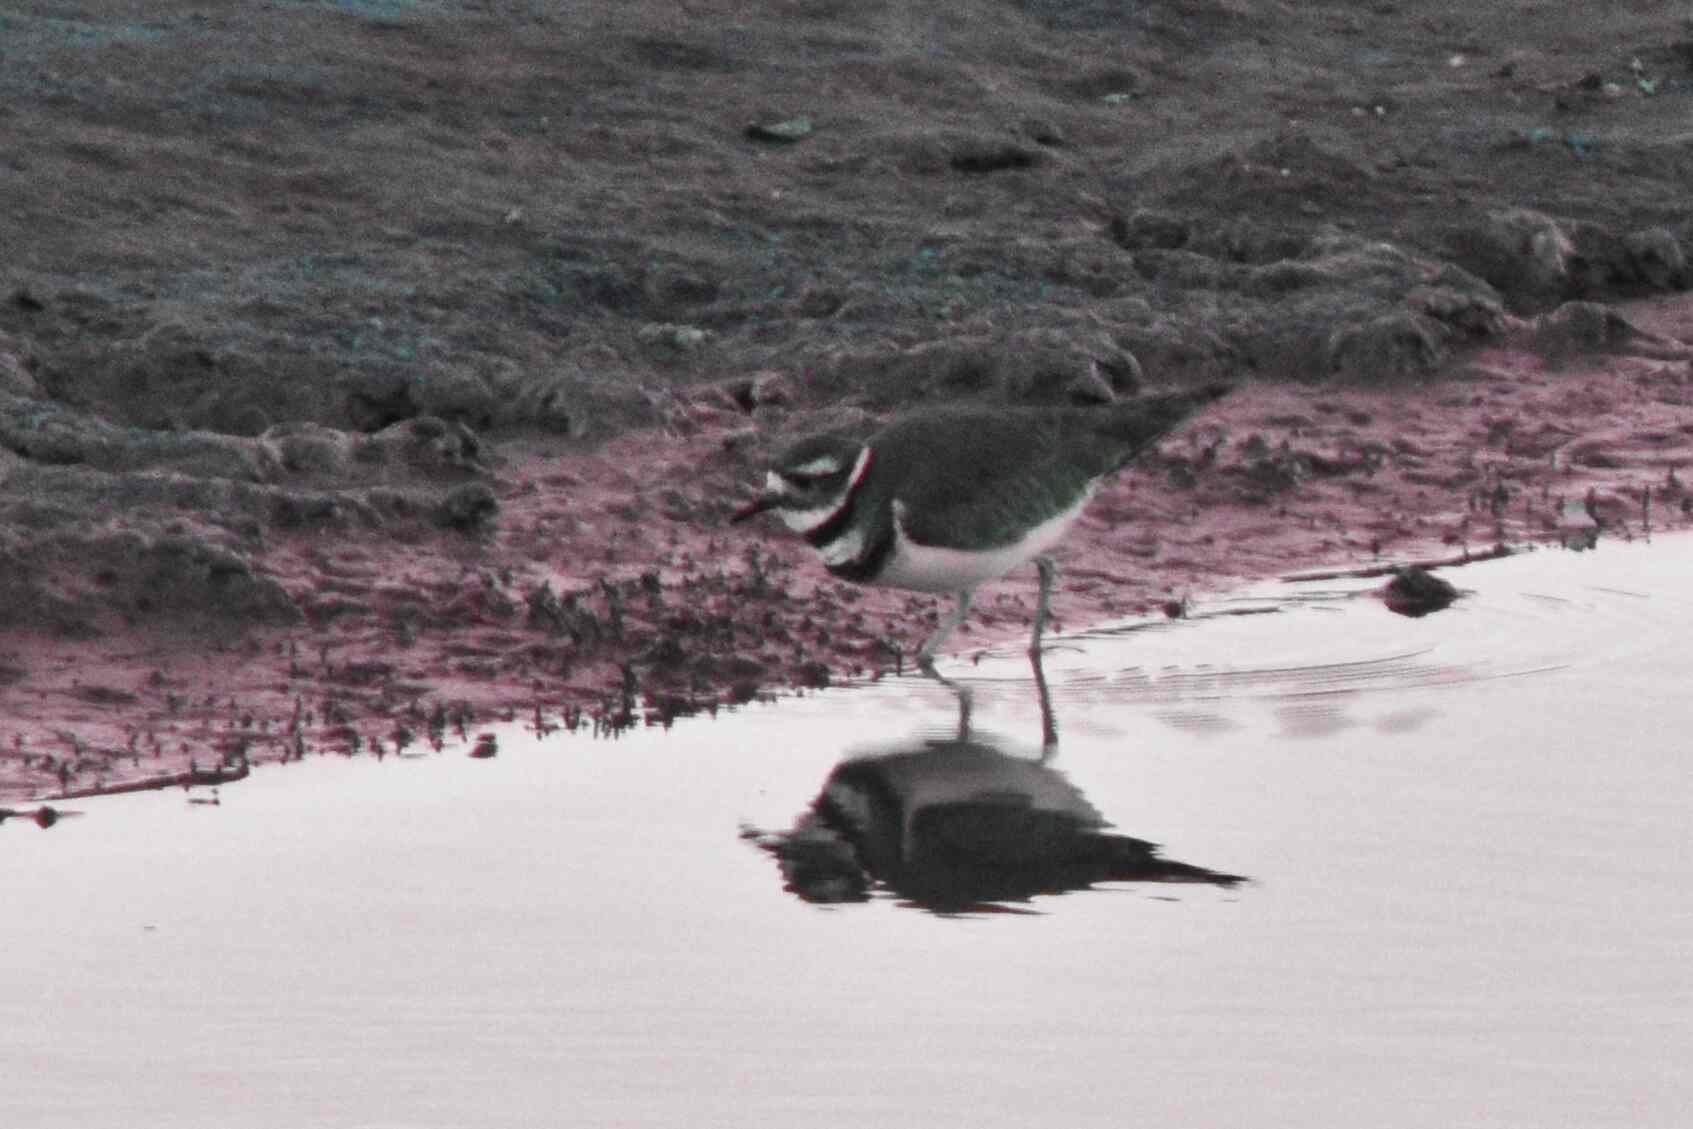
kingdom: Animalia
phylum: Chordata
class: Aves
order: Charadriiformes
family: Charadriidae
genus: Charadrius
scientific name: Charadrius vociferus
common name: Killdeer
